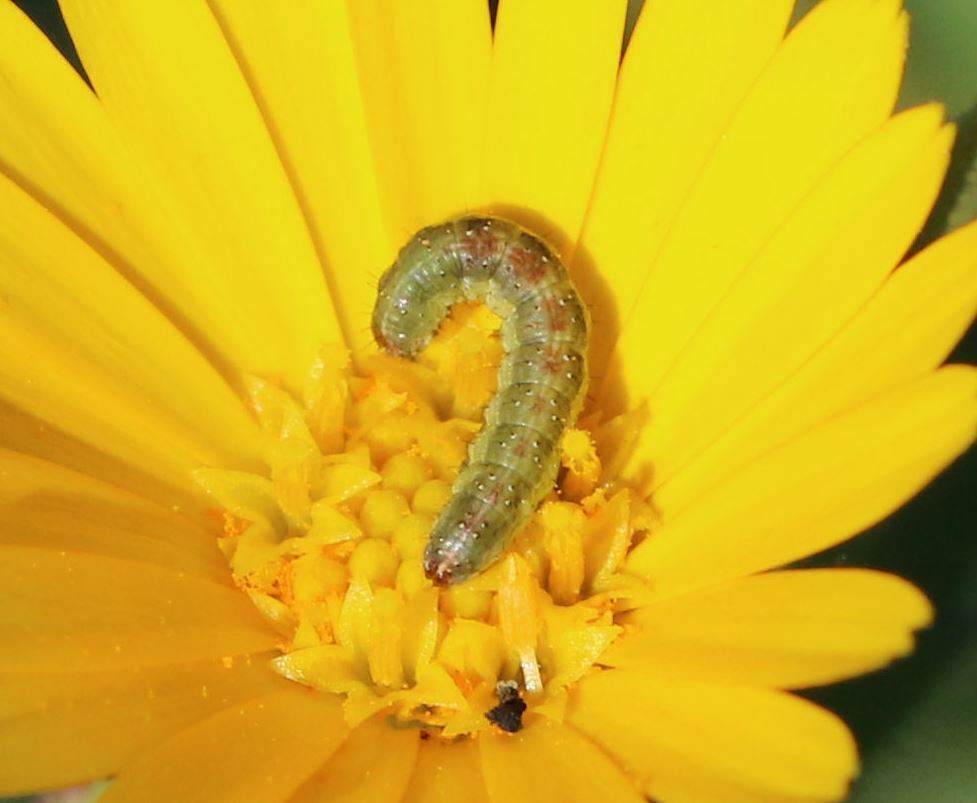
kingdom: Animalia
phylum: Arthropoda
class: Insecta
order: Lepidoptera
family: Noctuidae
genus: Cucullia
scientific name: Cucullia calendulae
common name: Marigold shark
